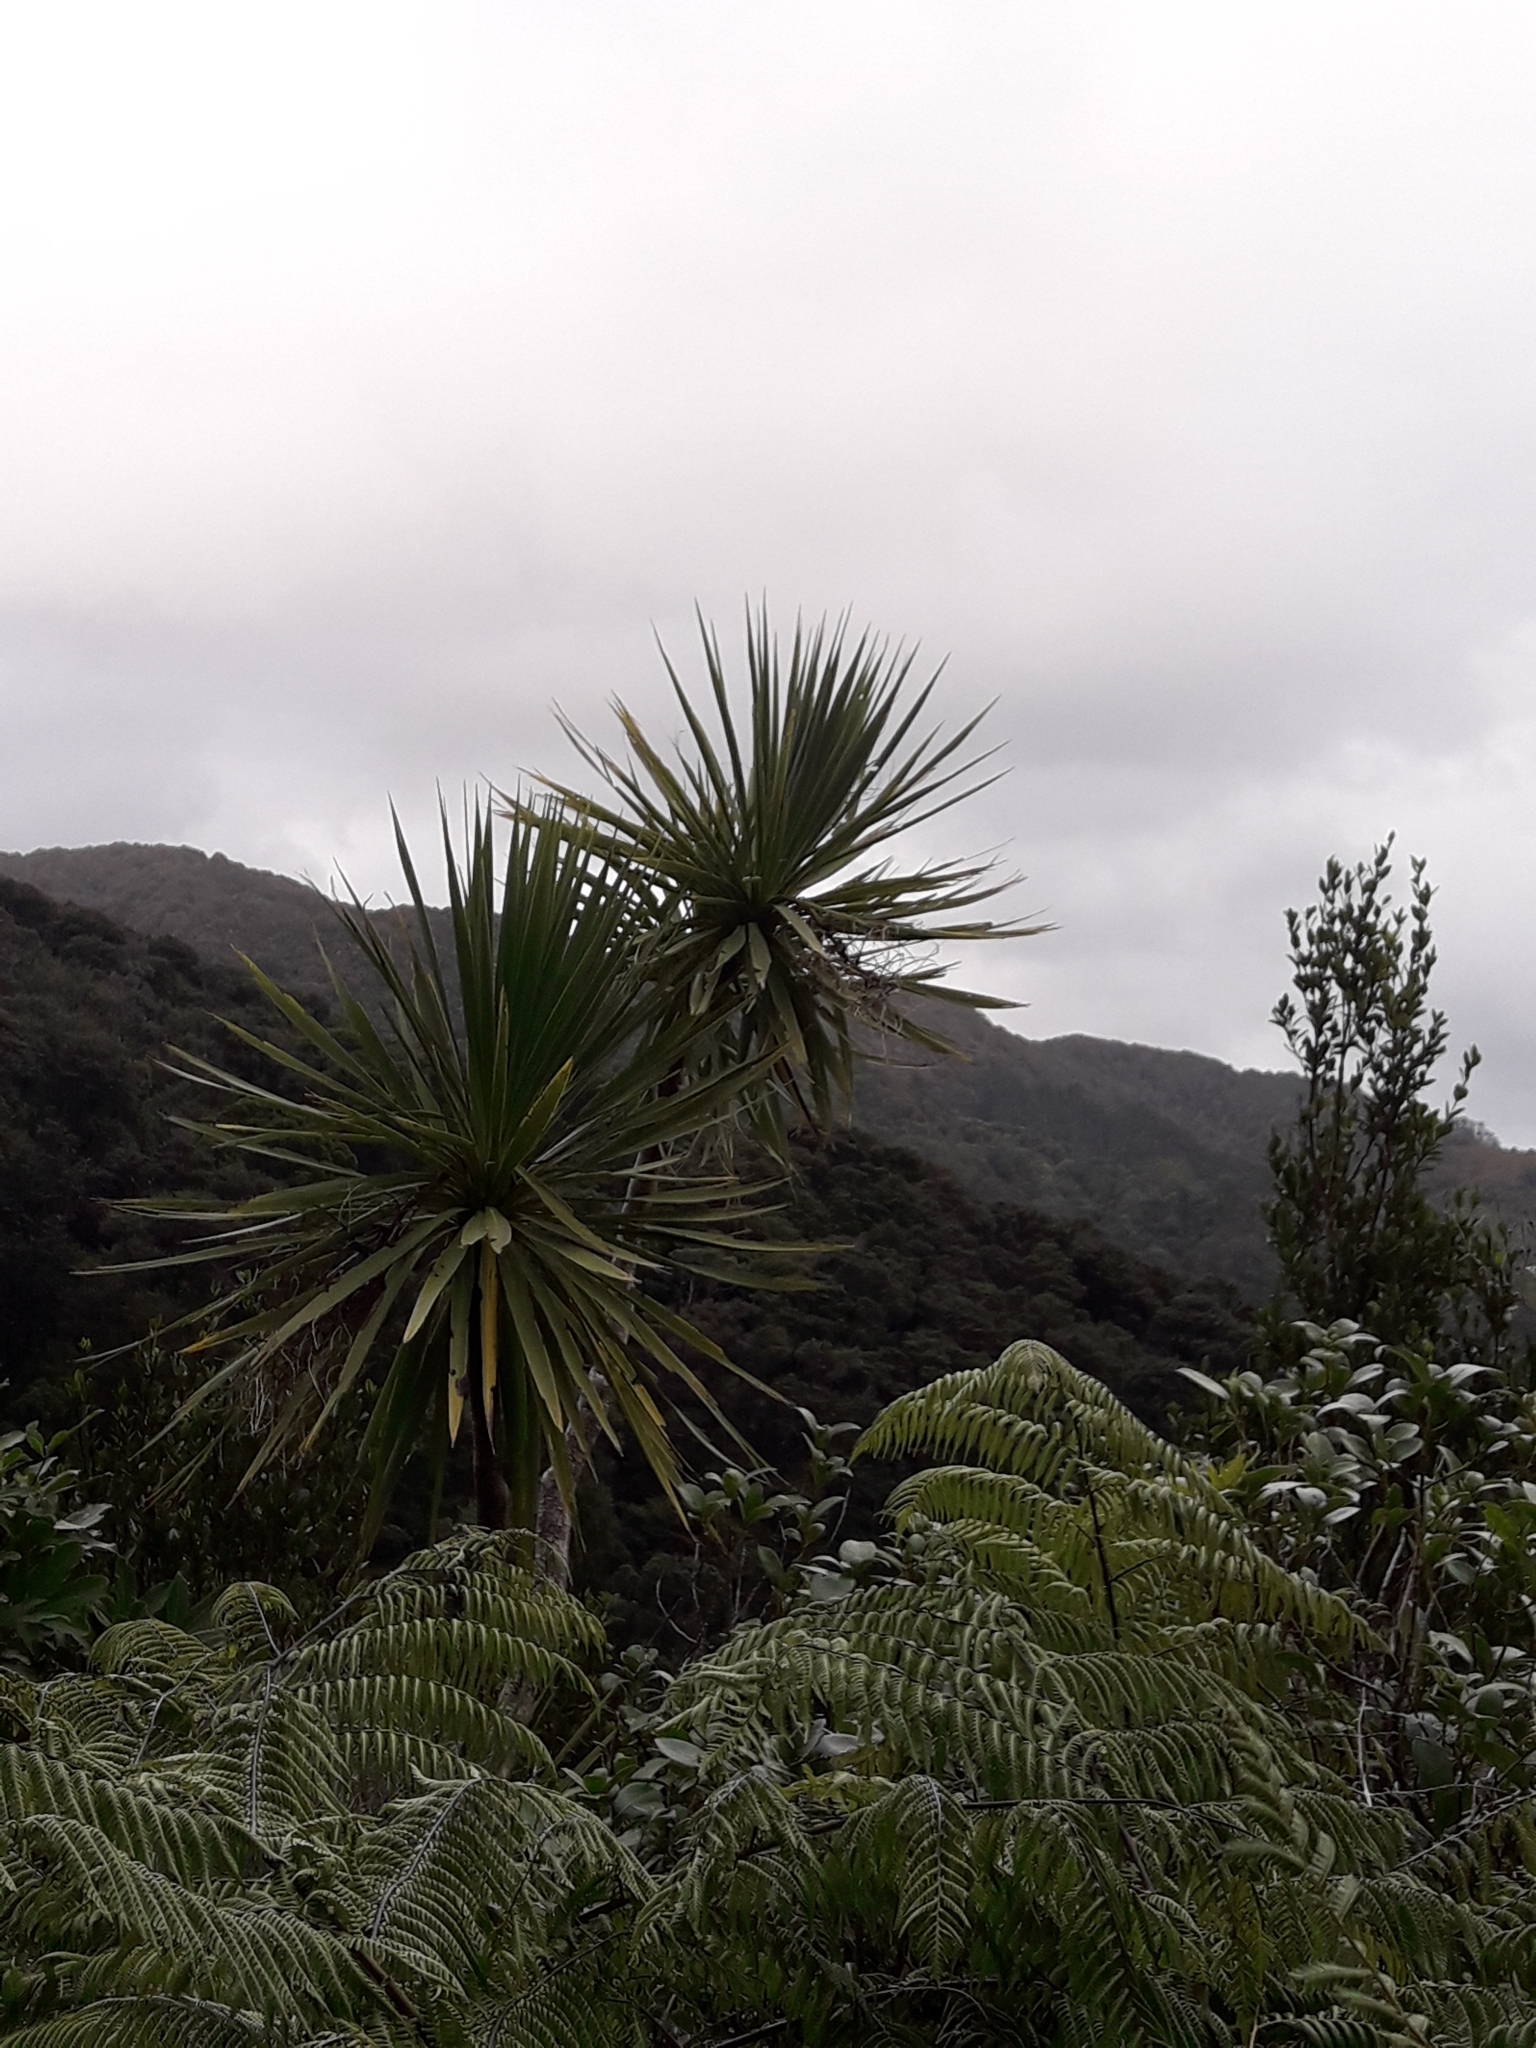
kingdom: Plantae
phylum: Tracheophyta
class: Liliopsida
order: Asparagales
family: Asparagaceae
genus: Cordyline
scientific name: Cordyline australis
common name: Cabbage-palm
